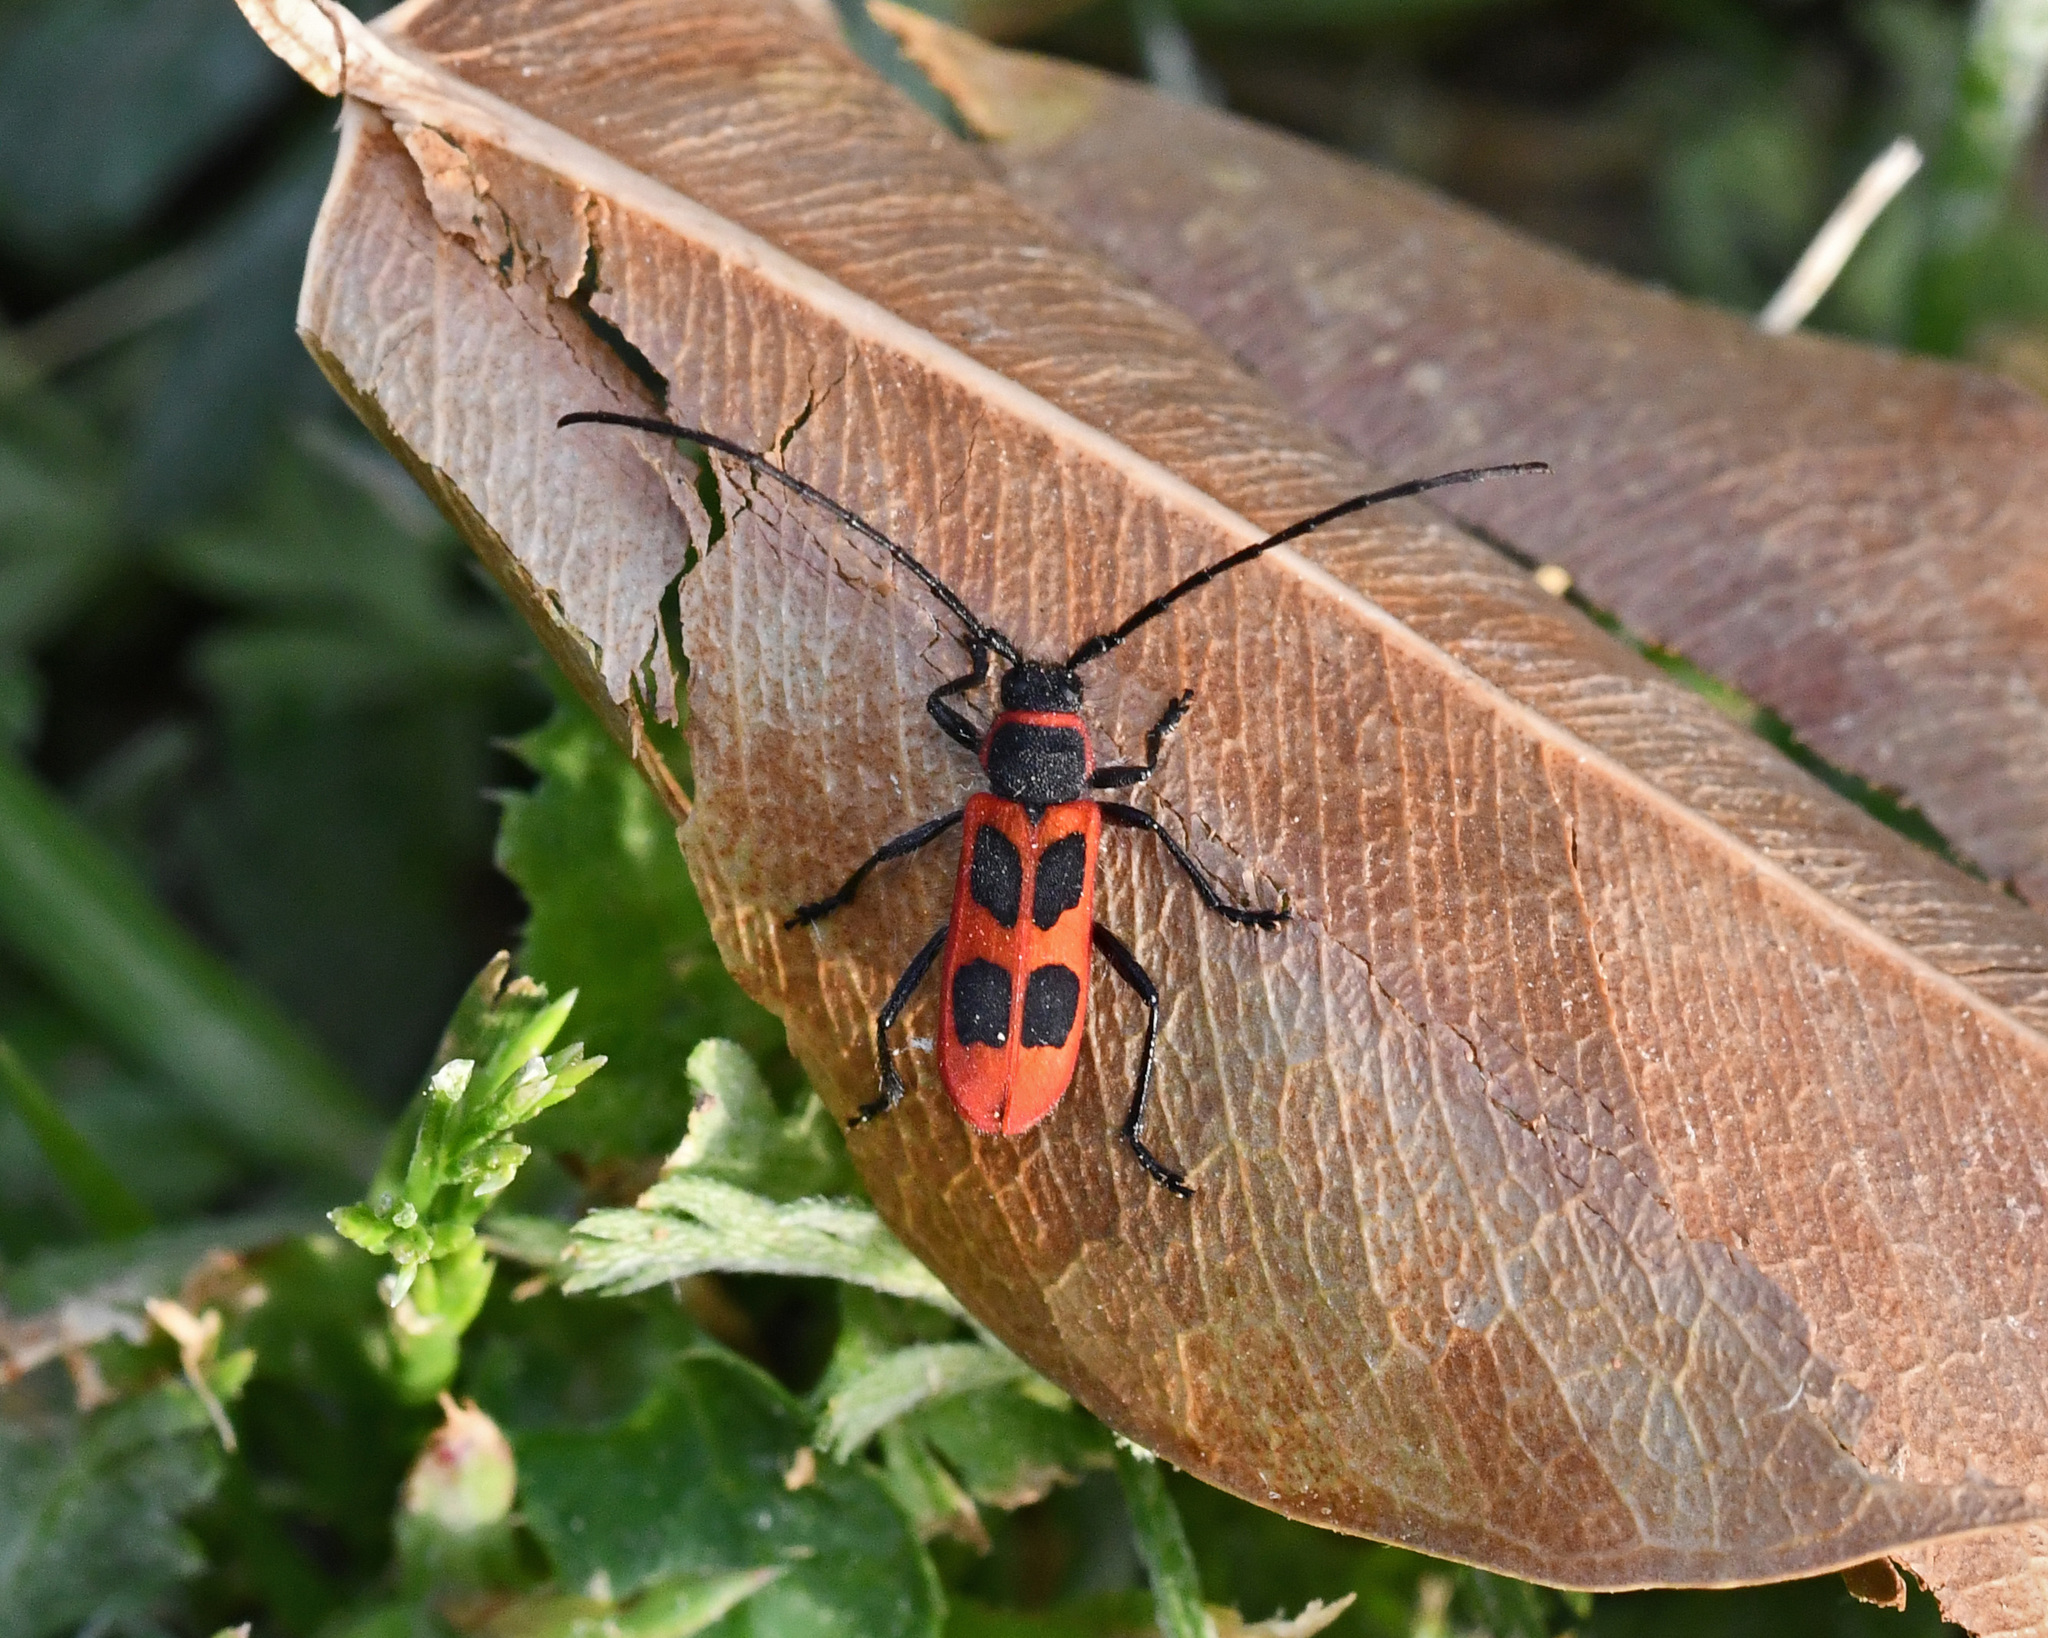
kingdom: Animalia
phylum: Arthropoda
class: Insecta
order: Coleoptera
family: Cerambycidae
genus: Calchaenesthes
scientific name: Calchaenesthes primis
